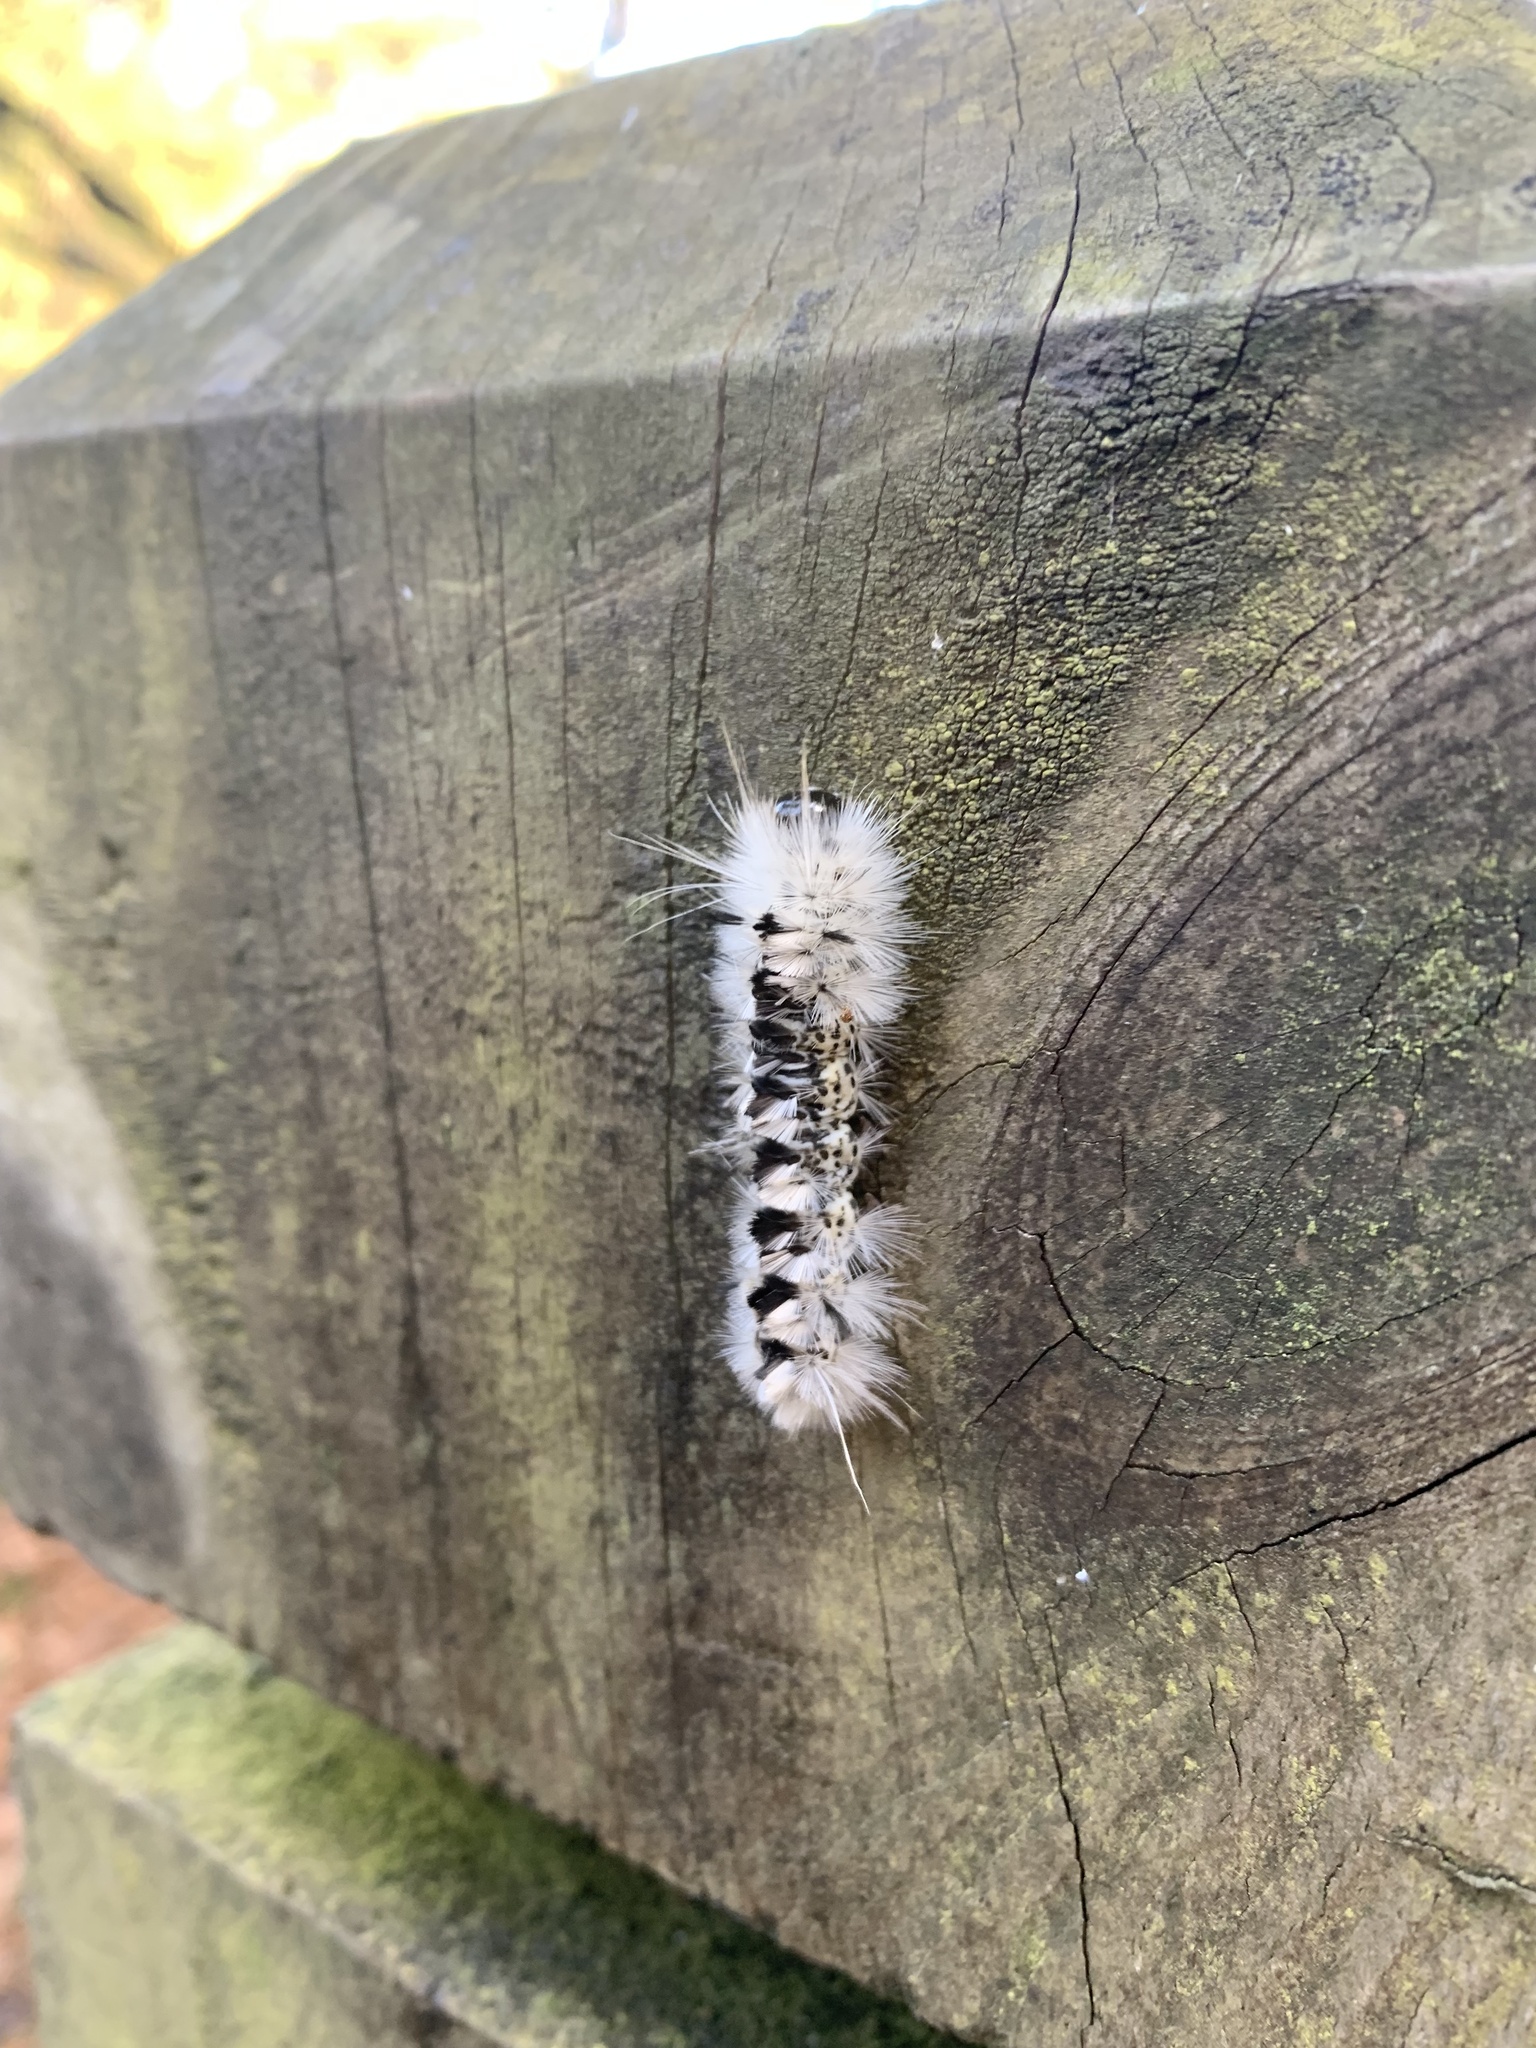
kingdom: Animalia
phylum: Arthropoda
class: Insecta
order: Lepidoptera
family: Erebidae
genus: Lophocampa
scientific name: Lophocampa caryae
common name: Hickory tussock moth
